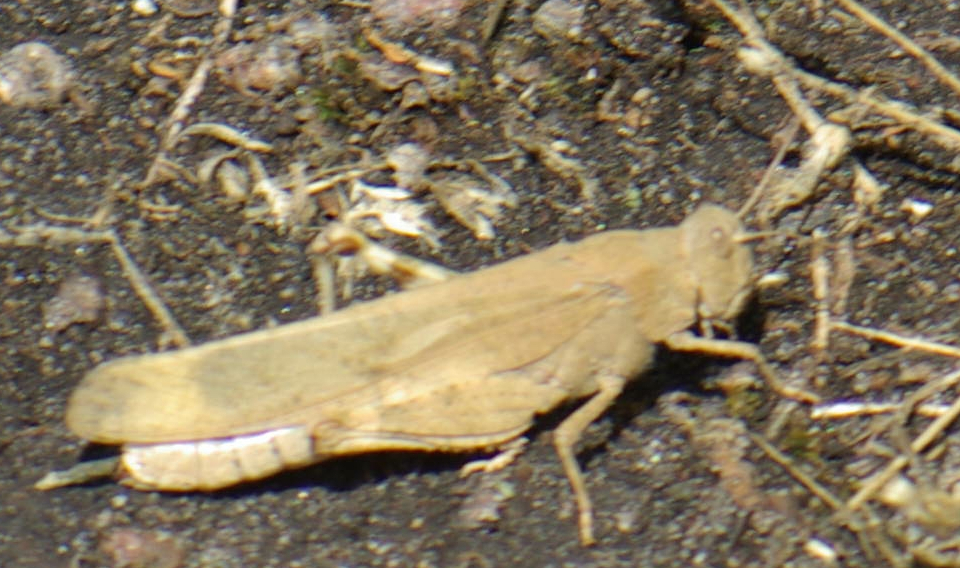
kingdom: Animalia
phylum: Arthropoda
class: Insecta
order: Orthoptera
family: Acrididae
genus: Dissosteira
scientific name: Dissosteira carolina
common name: Carolina grasshopper
